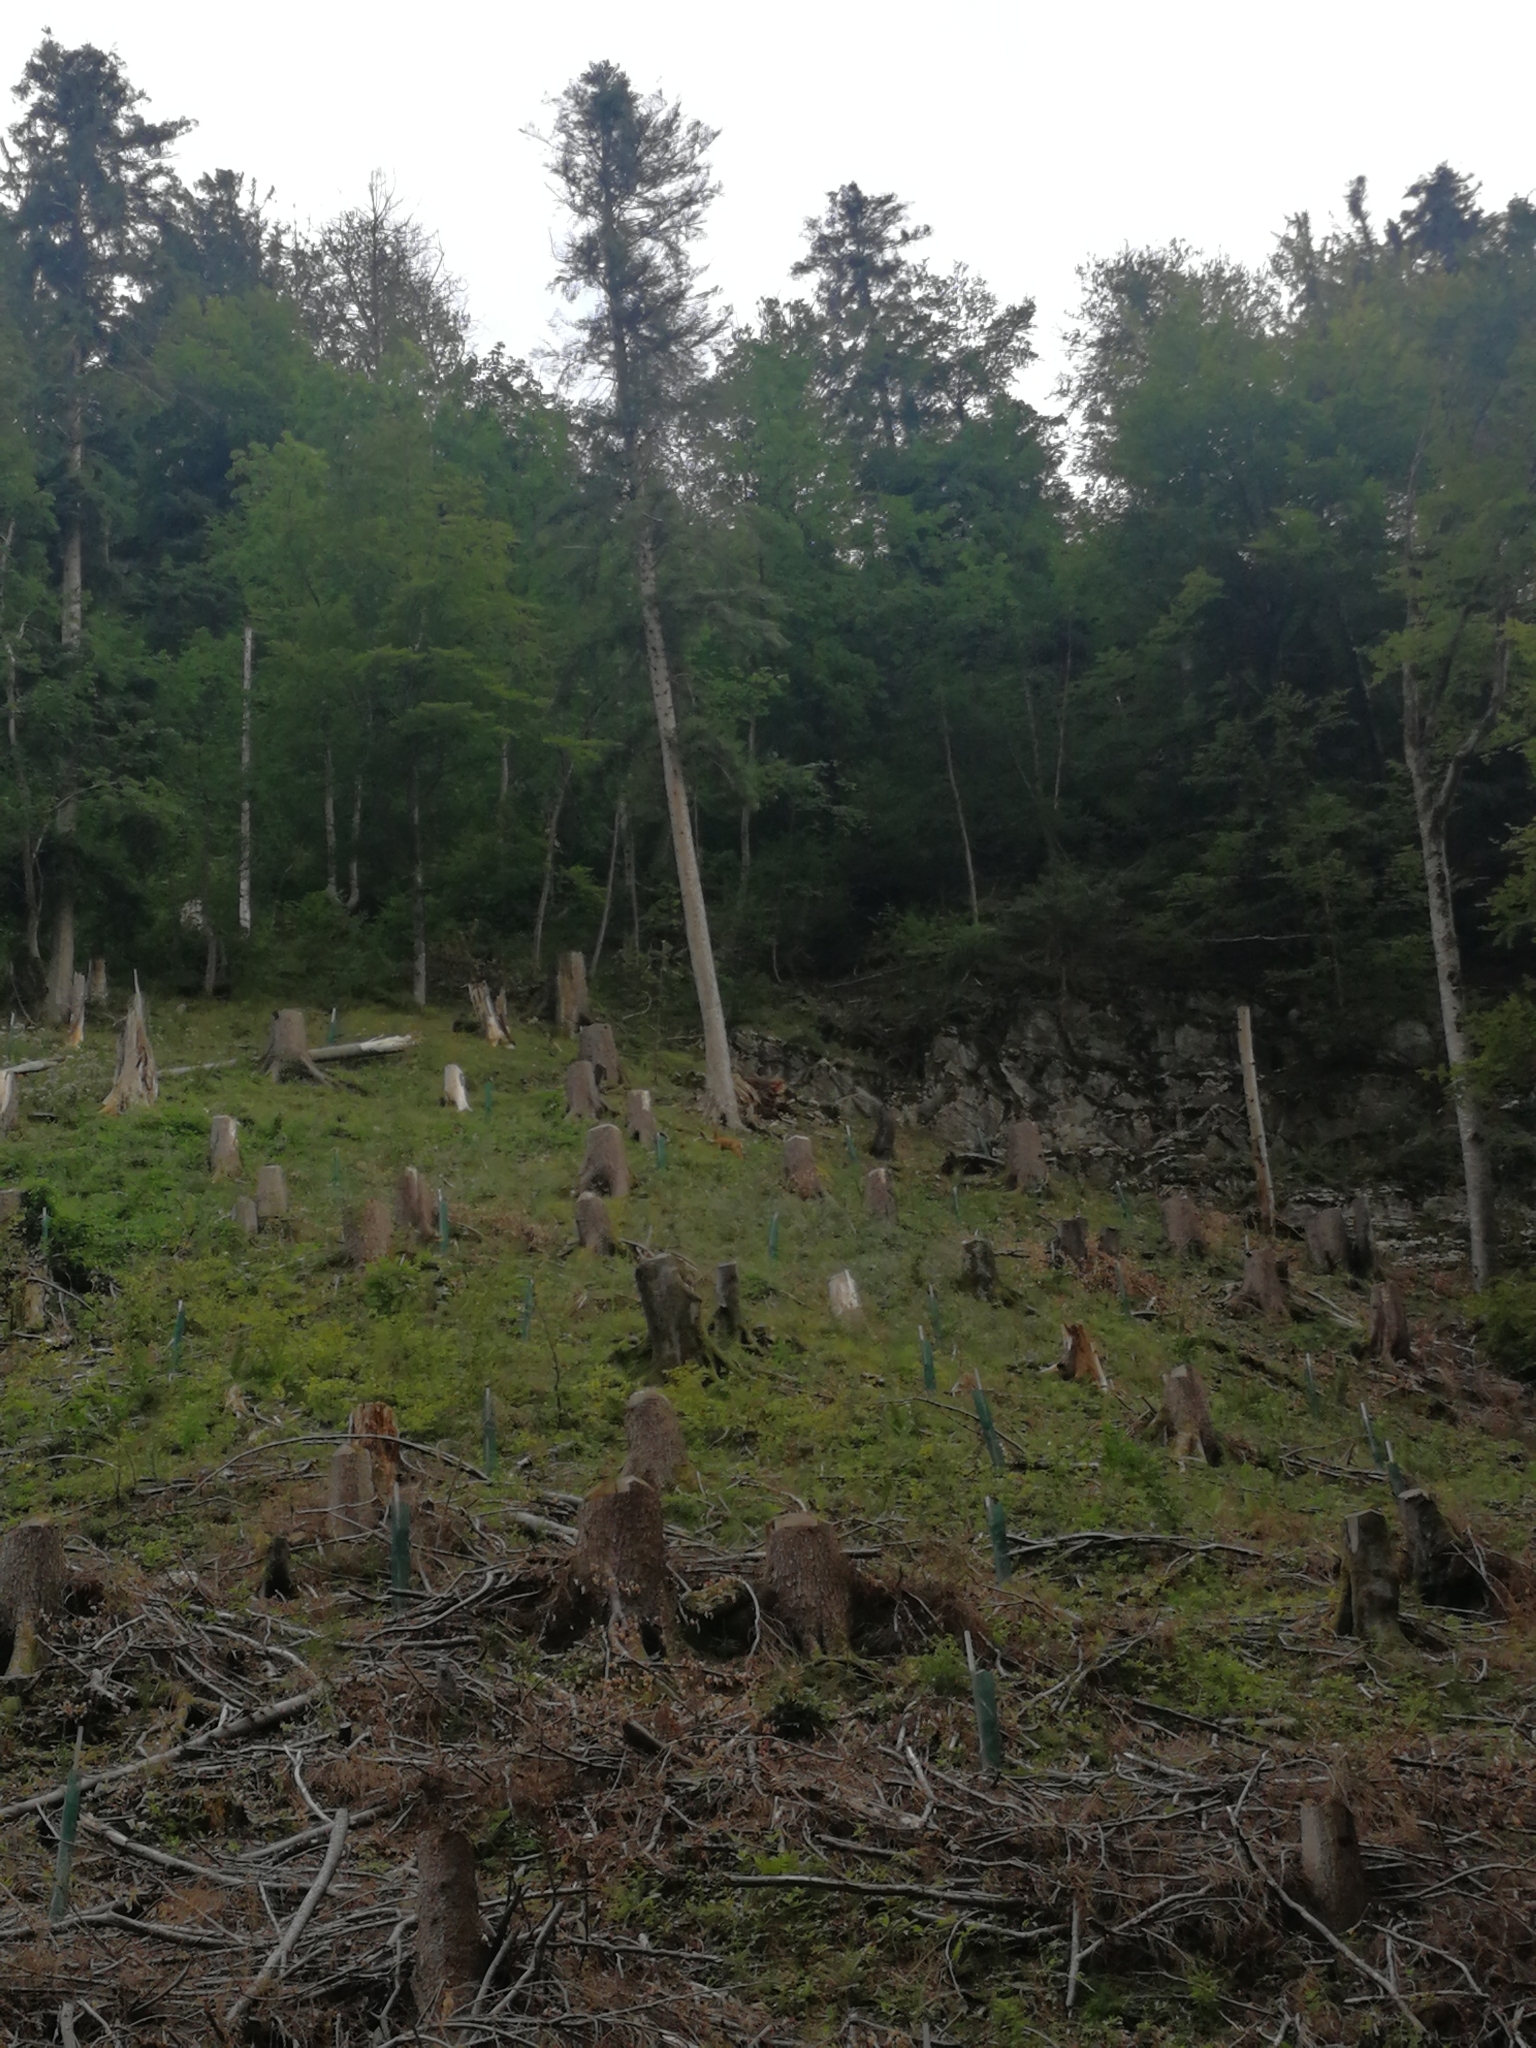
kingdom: Animalia
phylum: Chordata
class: Mammalia
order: Artiodactyla
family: Cervidae
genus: Capreolus
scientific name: Capreolus capreolus
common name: Western roe deer
